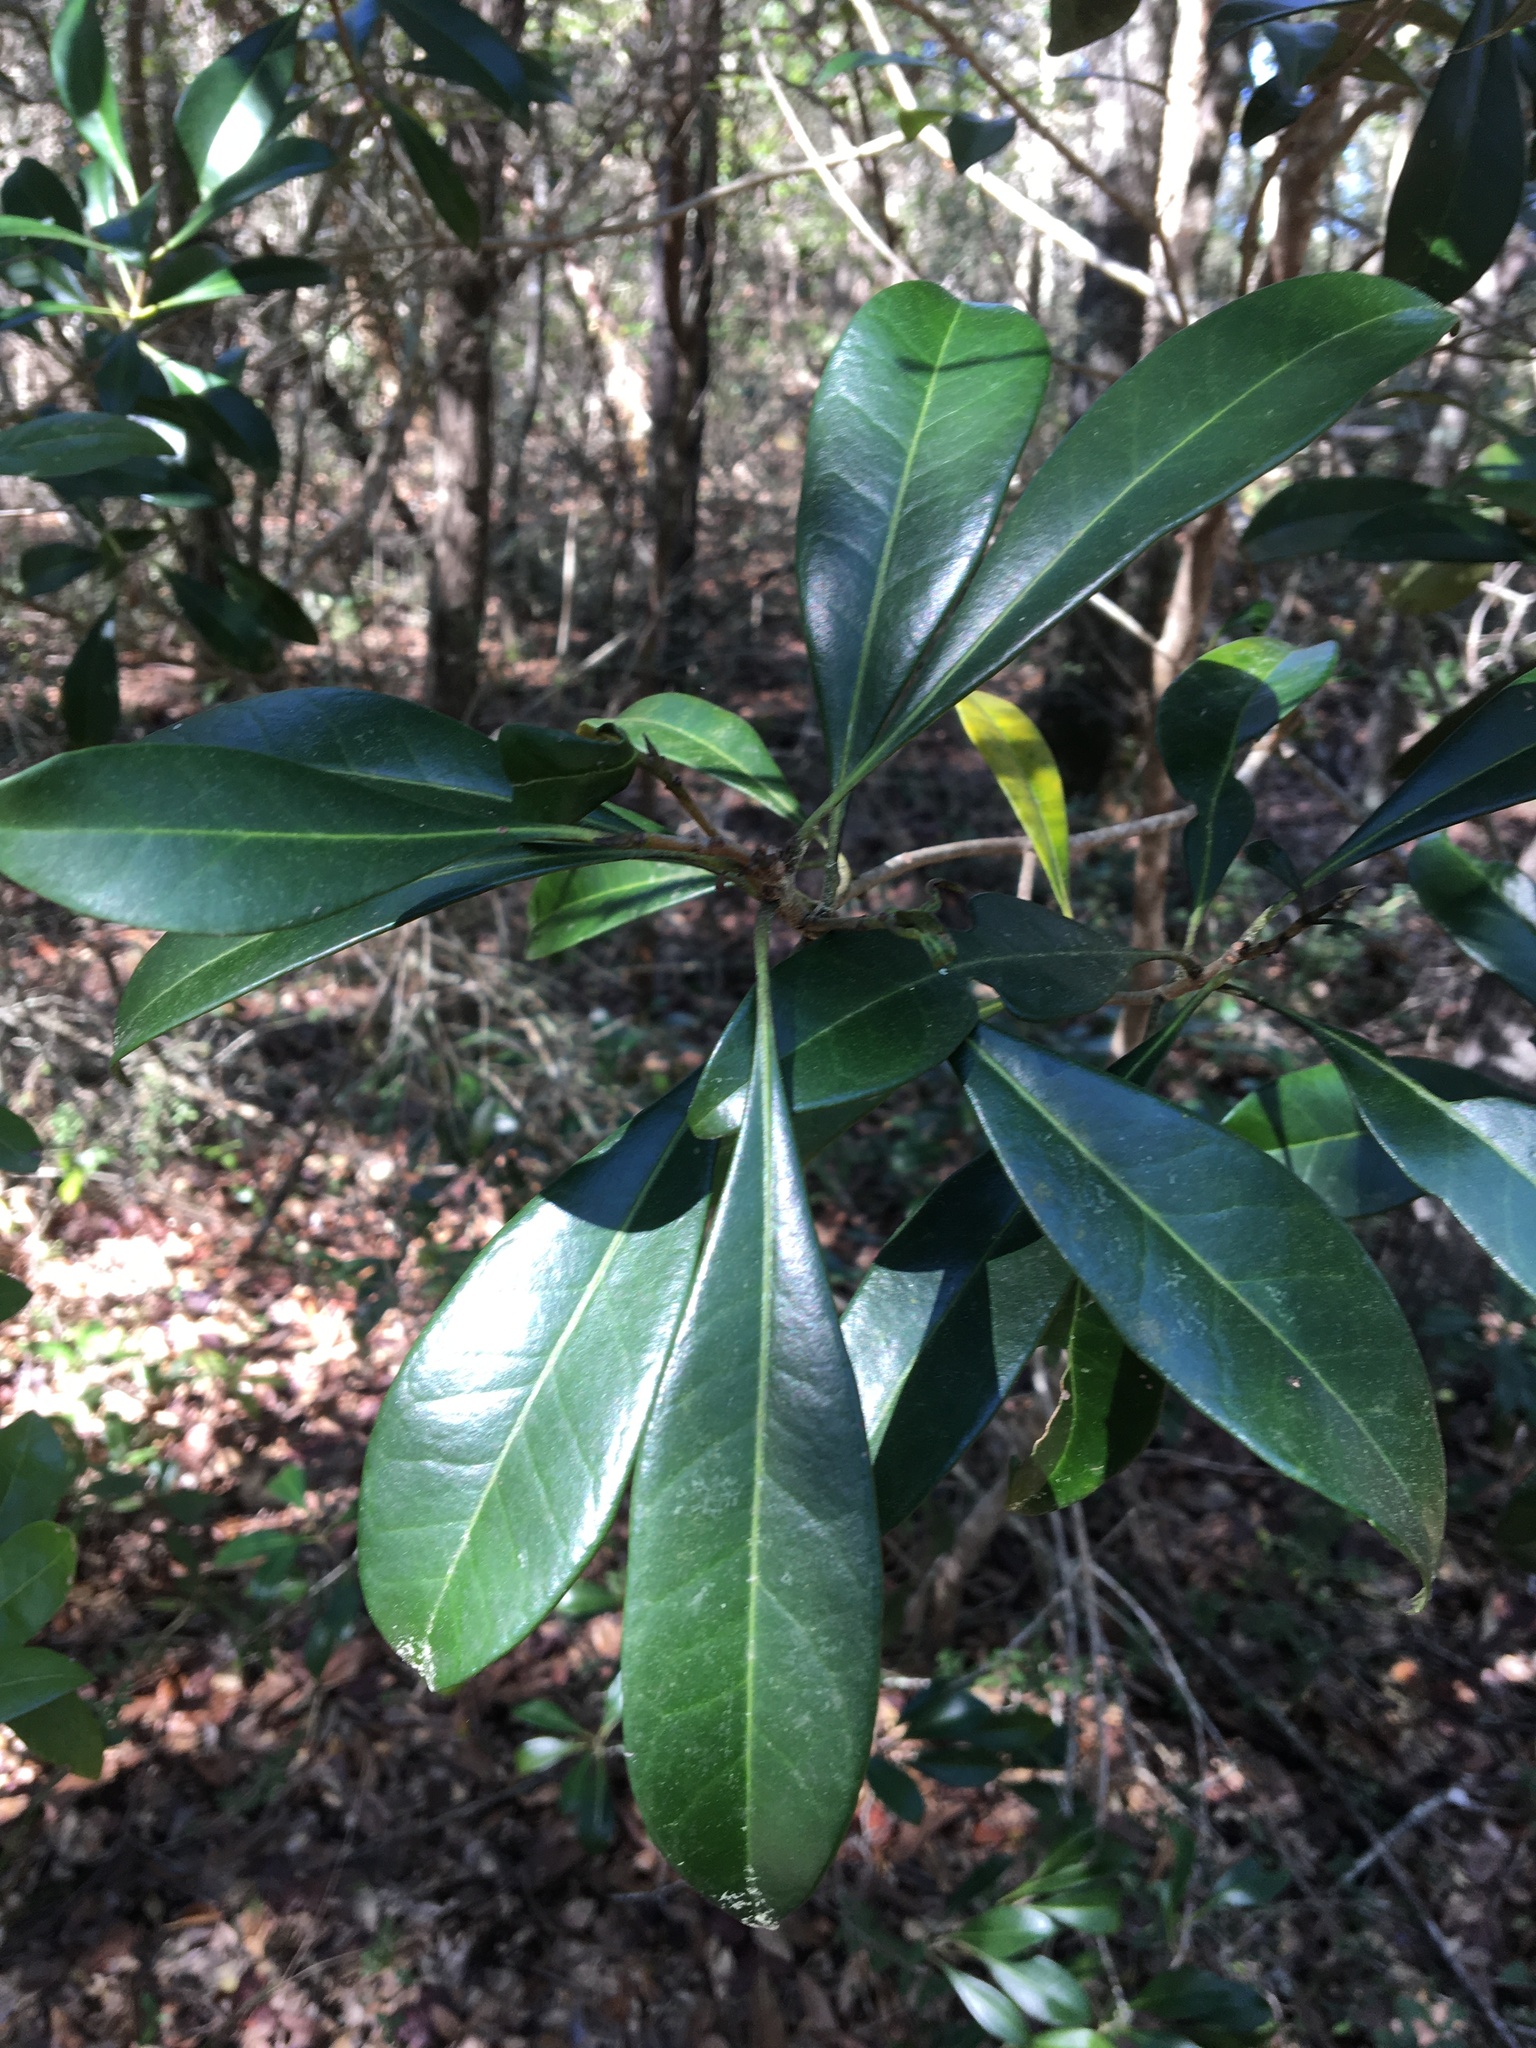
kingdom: Plantae
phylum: Tracheophyta
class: Magnoliopsida
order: Lamiales
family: Oleaceae
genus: Cartrema
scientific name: Cartrema americana
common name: Devilwood
